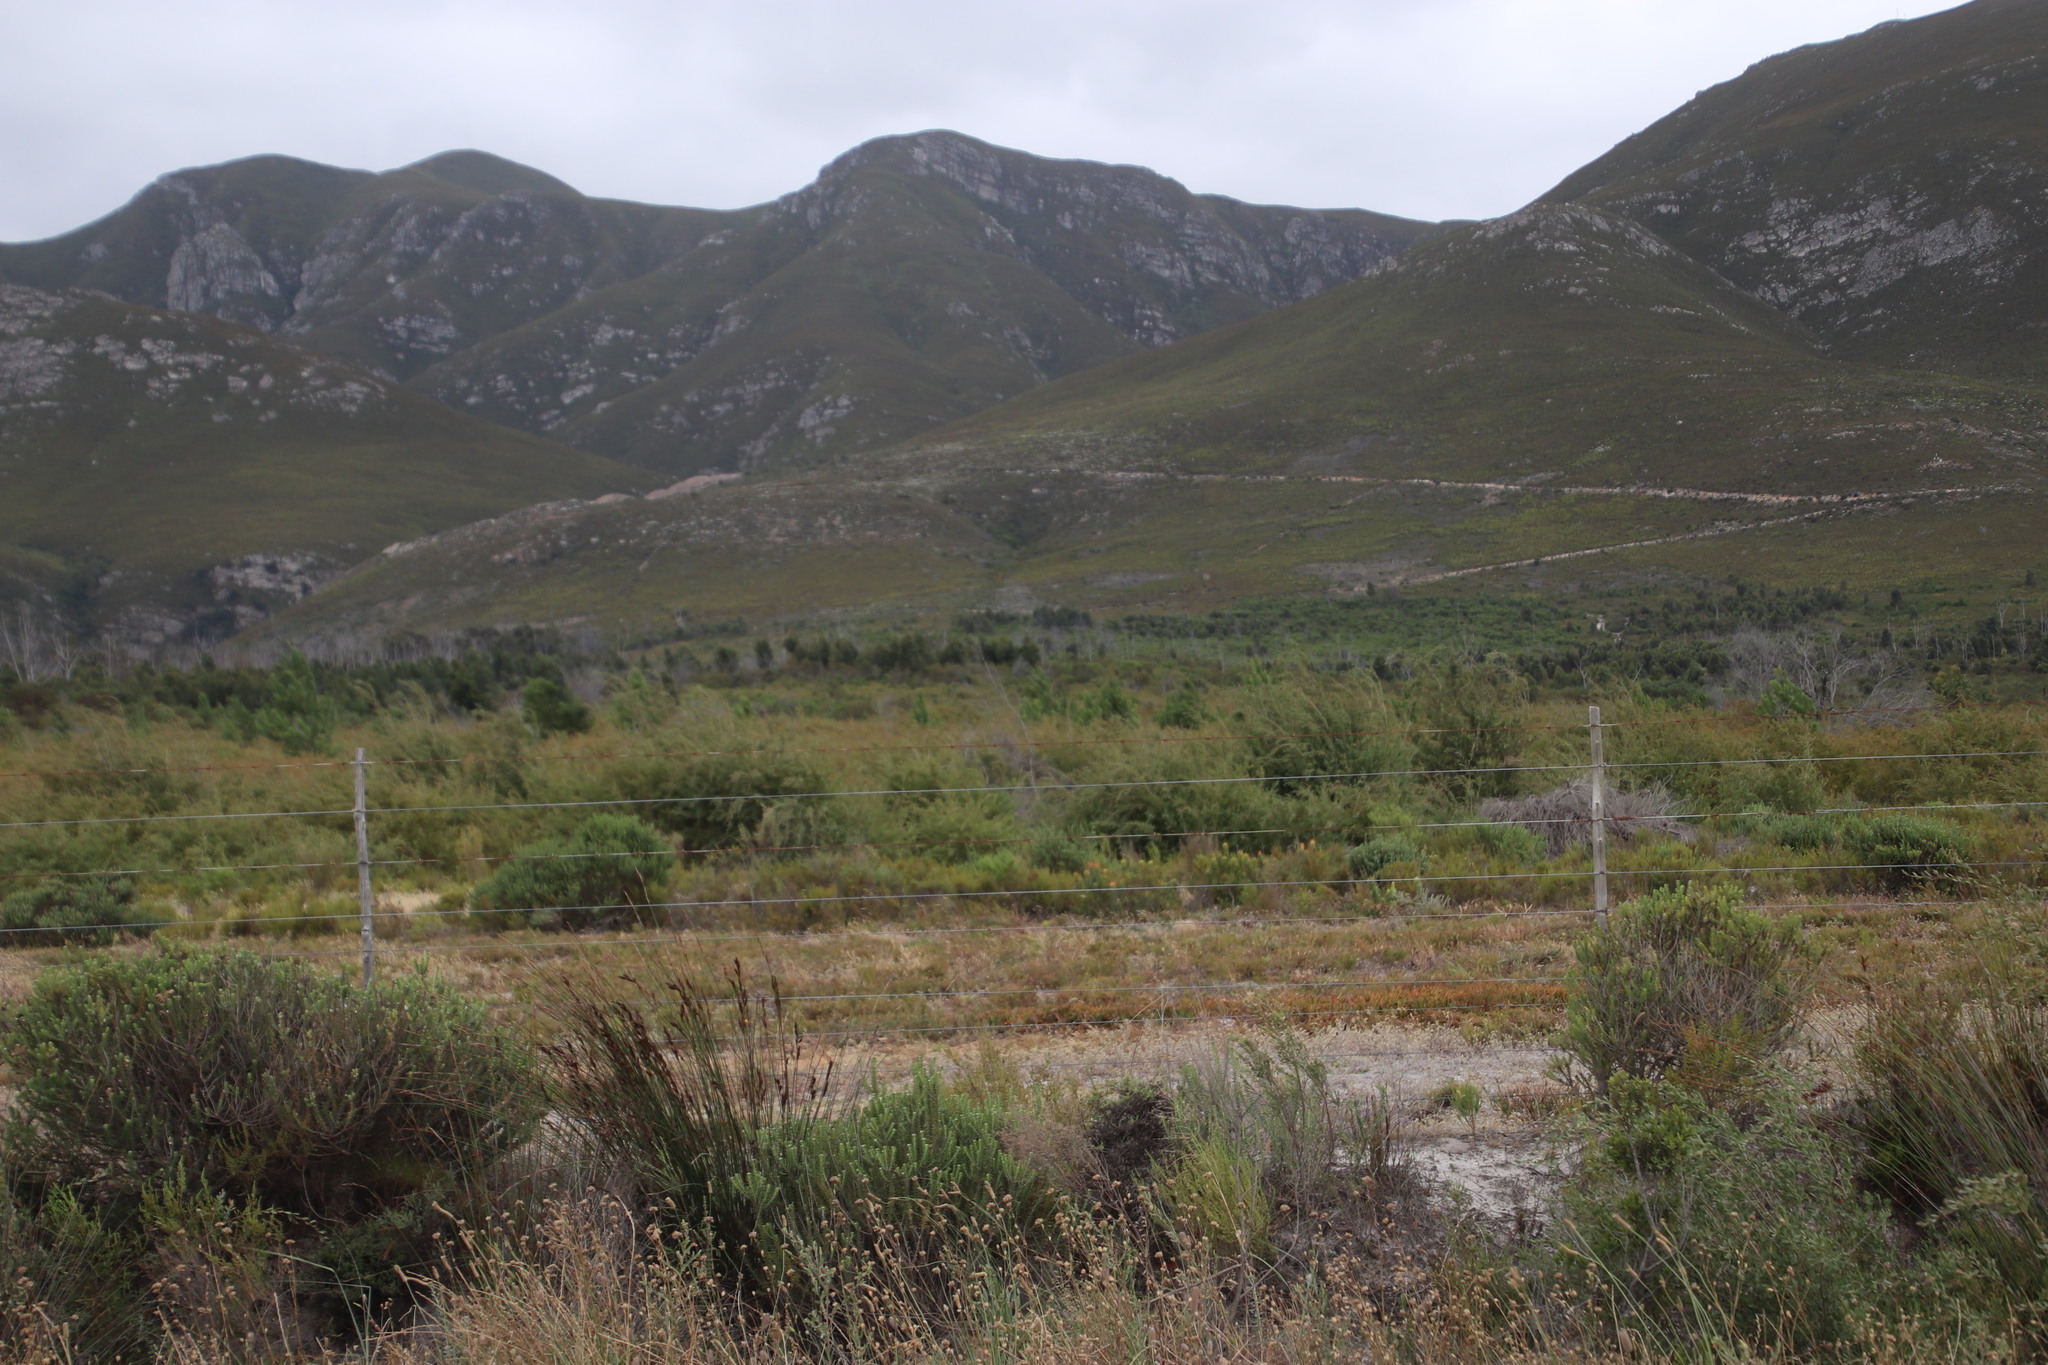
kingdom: Plantae
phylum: Tracheophyta
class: Magnoliopsida
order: Myrtales
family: Myrtaceae
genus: Leptospermum
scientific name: Leptospermum laevigatum
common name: Australian teatree
